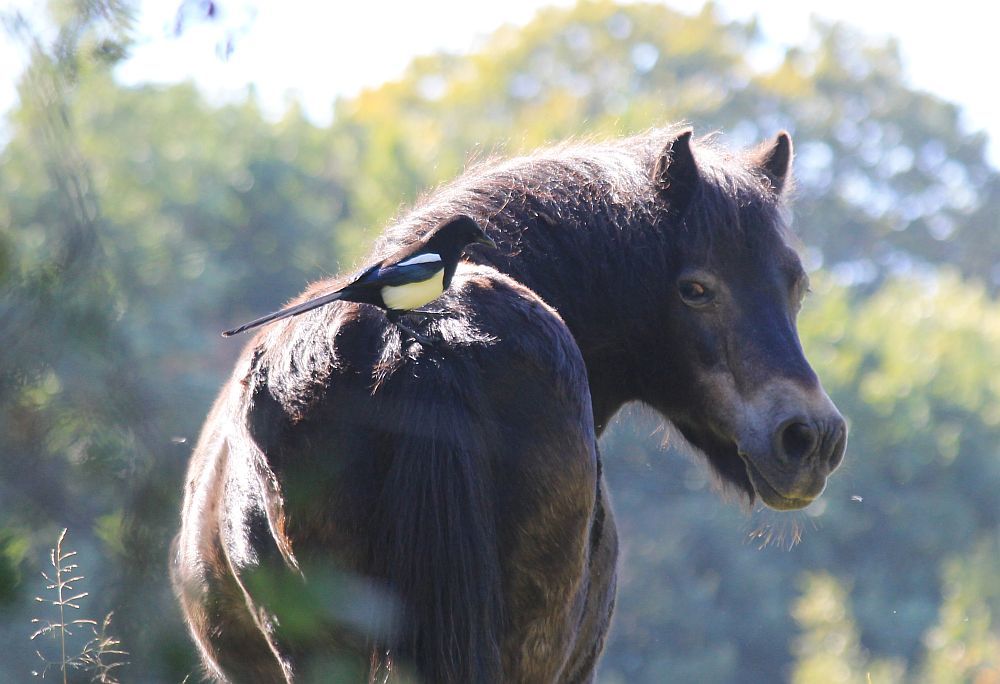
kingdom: Animalia
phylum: Chordata
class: Aves
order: Passeriformes
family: Corvidae
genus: Pica
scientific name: Pica pica
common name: Eurasian magpie
